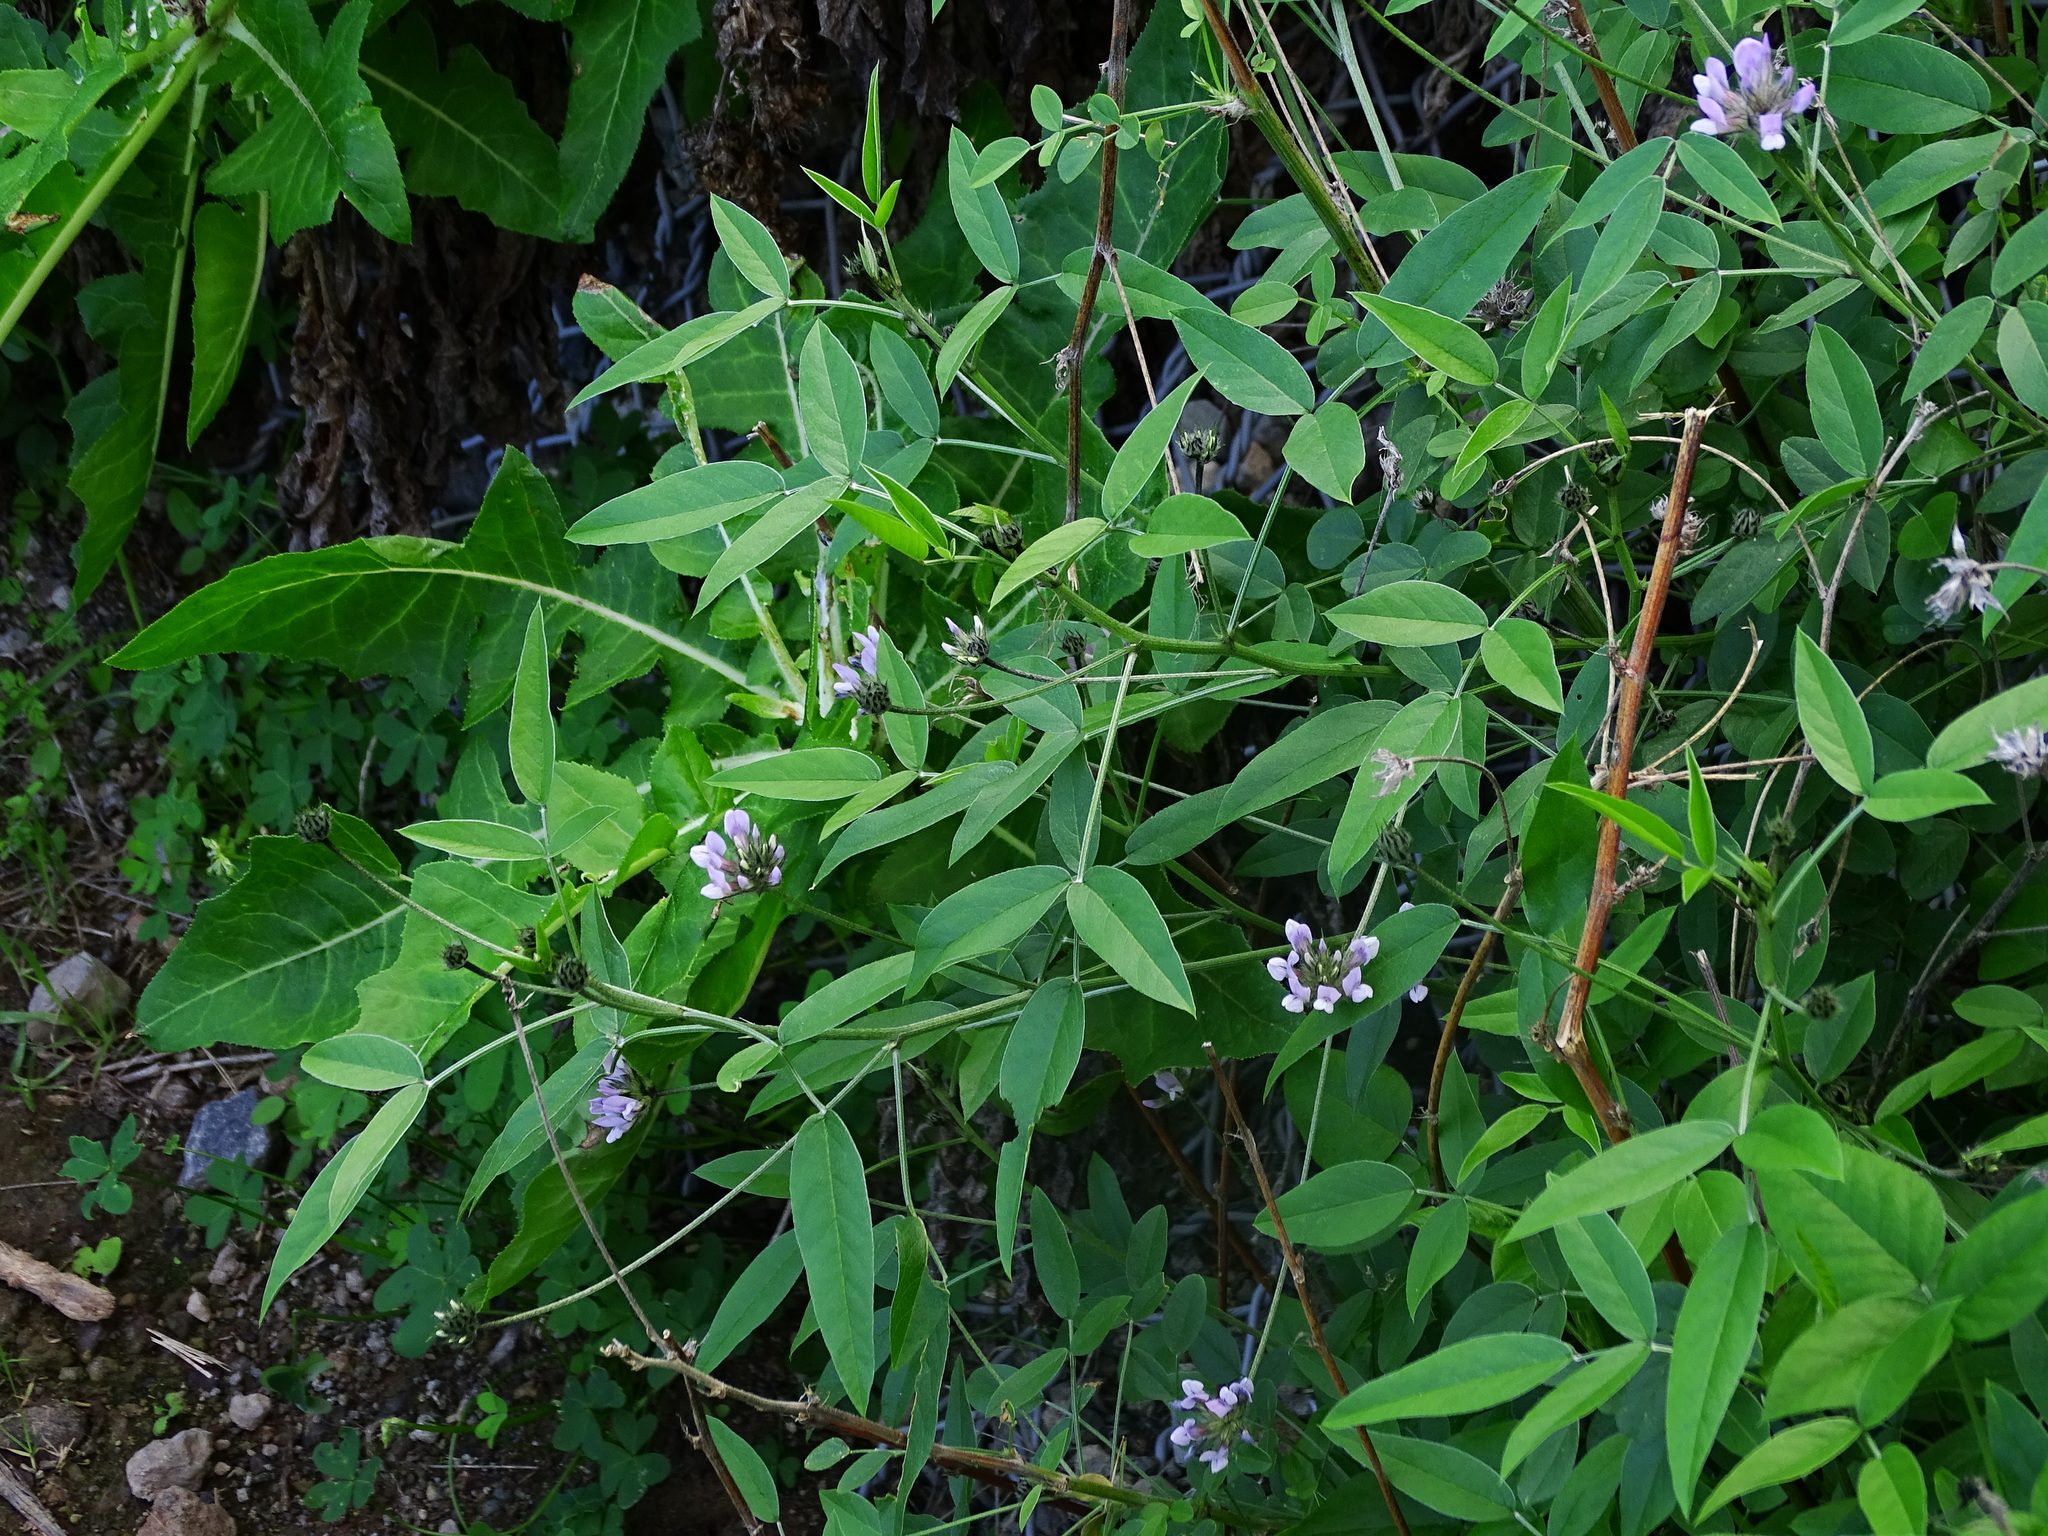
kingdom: Plantae
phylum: Tracheophyta
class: Magnoliopsida
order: Fabales
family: Fabaceae
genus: Bituminaria
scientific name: Bituminaria bituminosa
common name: Arabian pea
